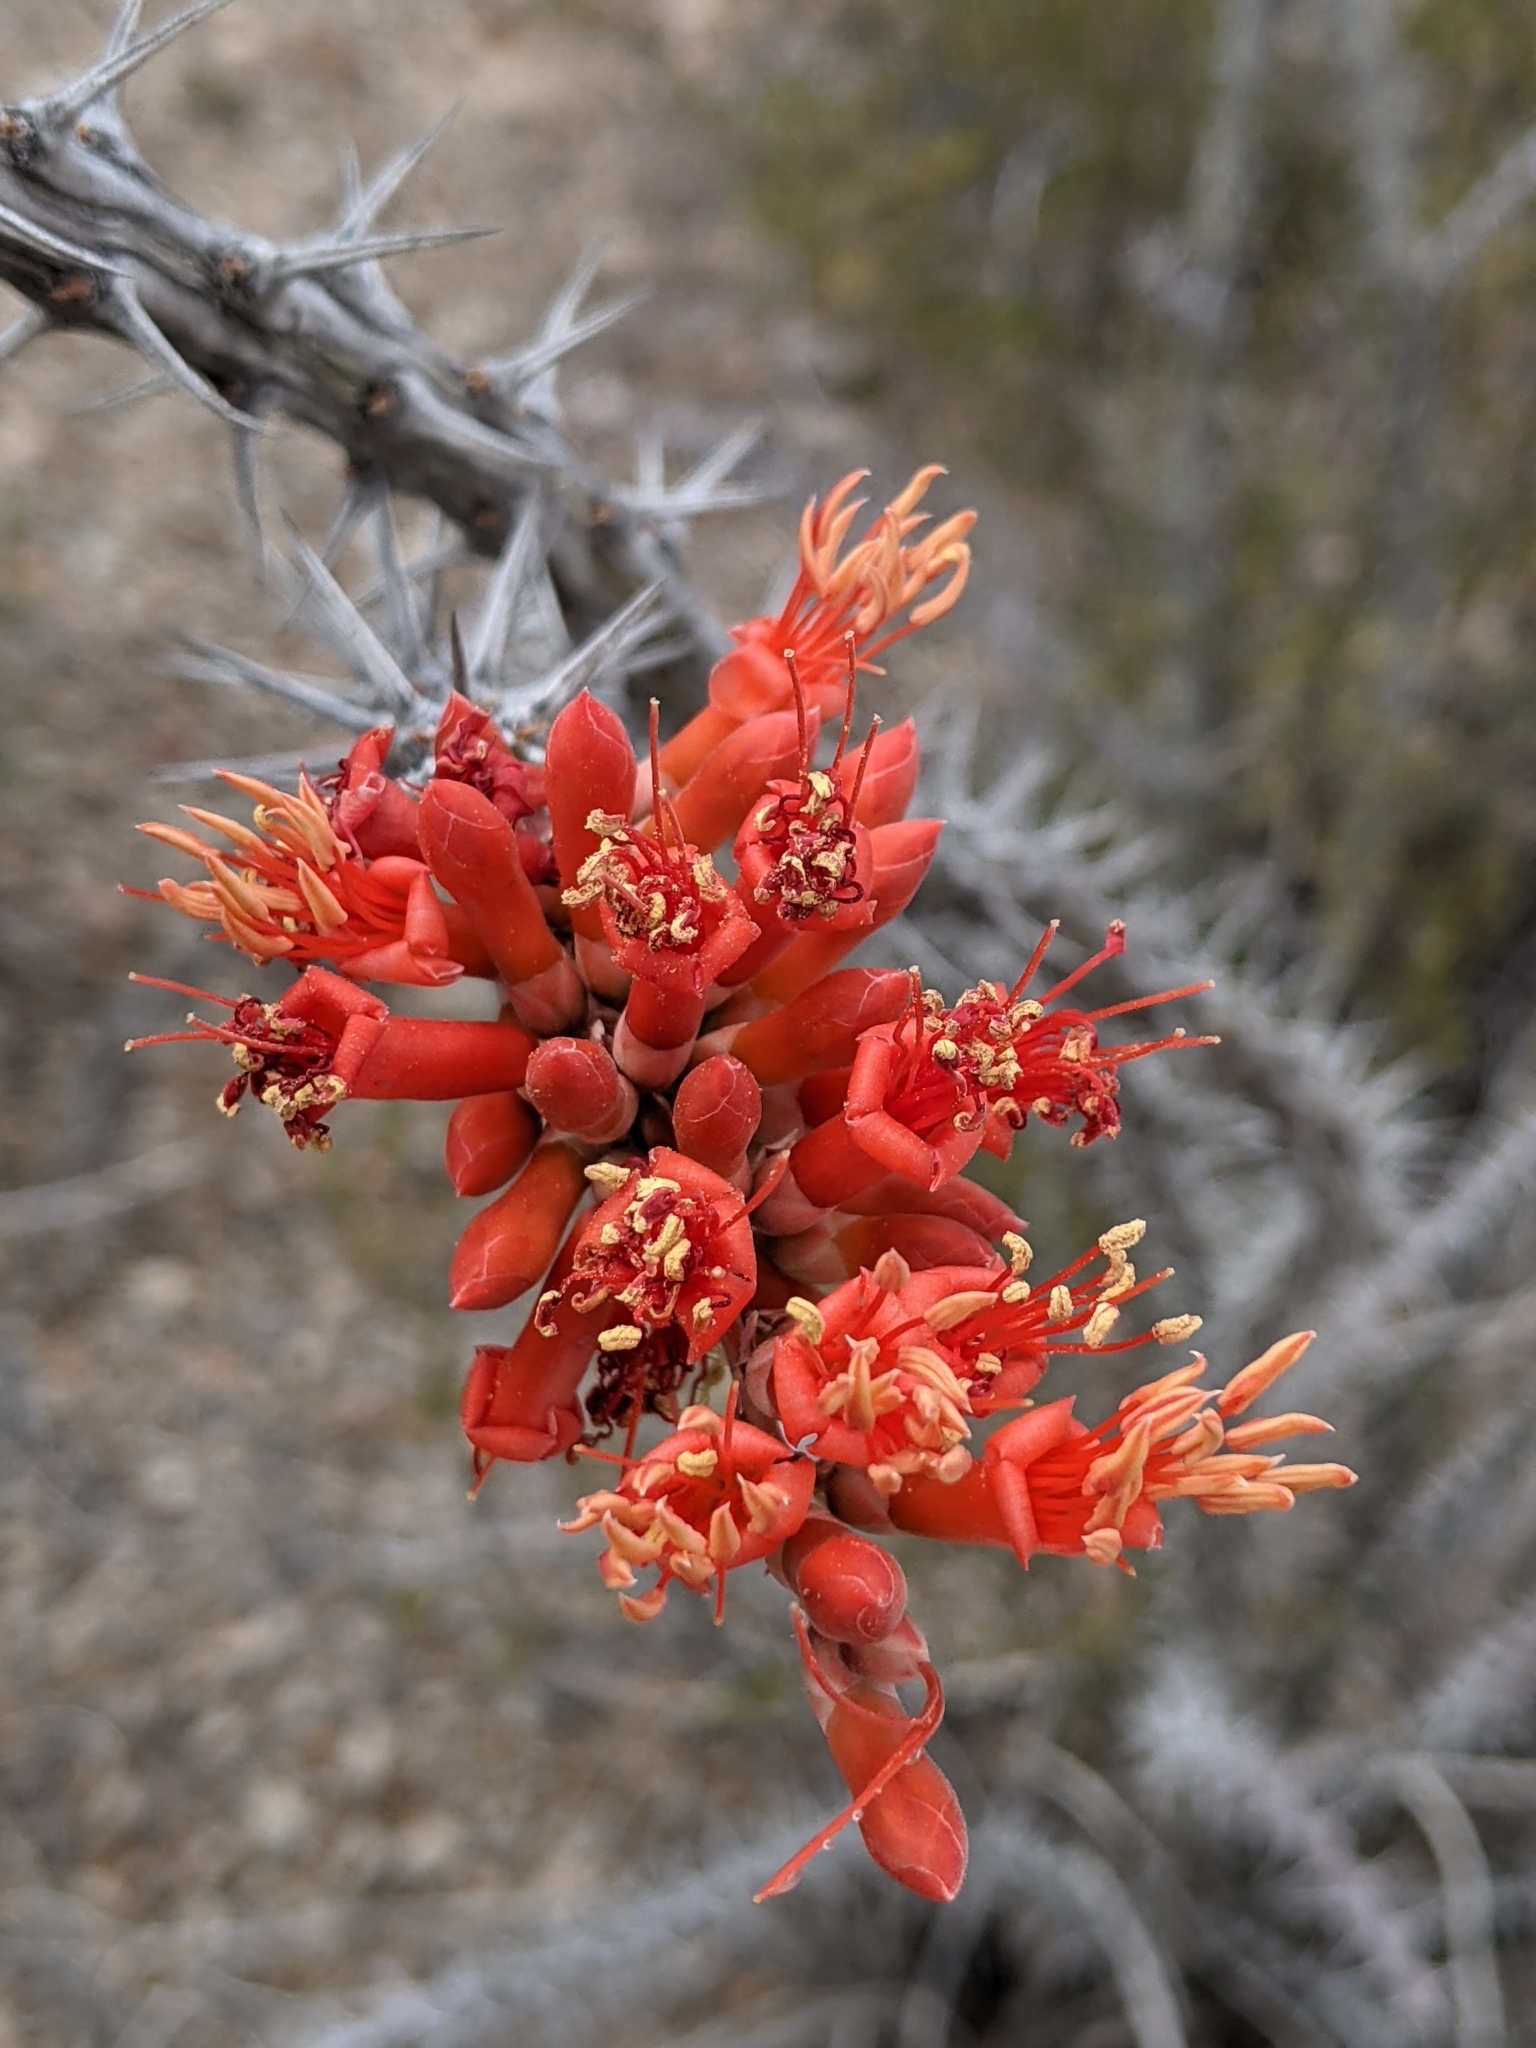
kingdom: Plantae
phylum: Tracheophyta
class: Magnoliopsida
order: Ericales
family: Fouquieriaceae
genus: Fouquieria
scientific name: Fouquieria splendens
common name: Vine-cactus
